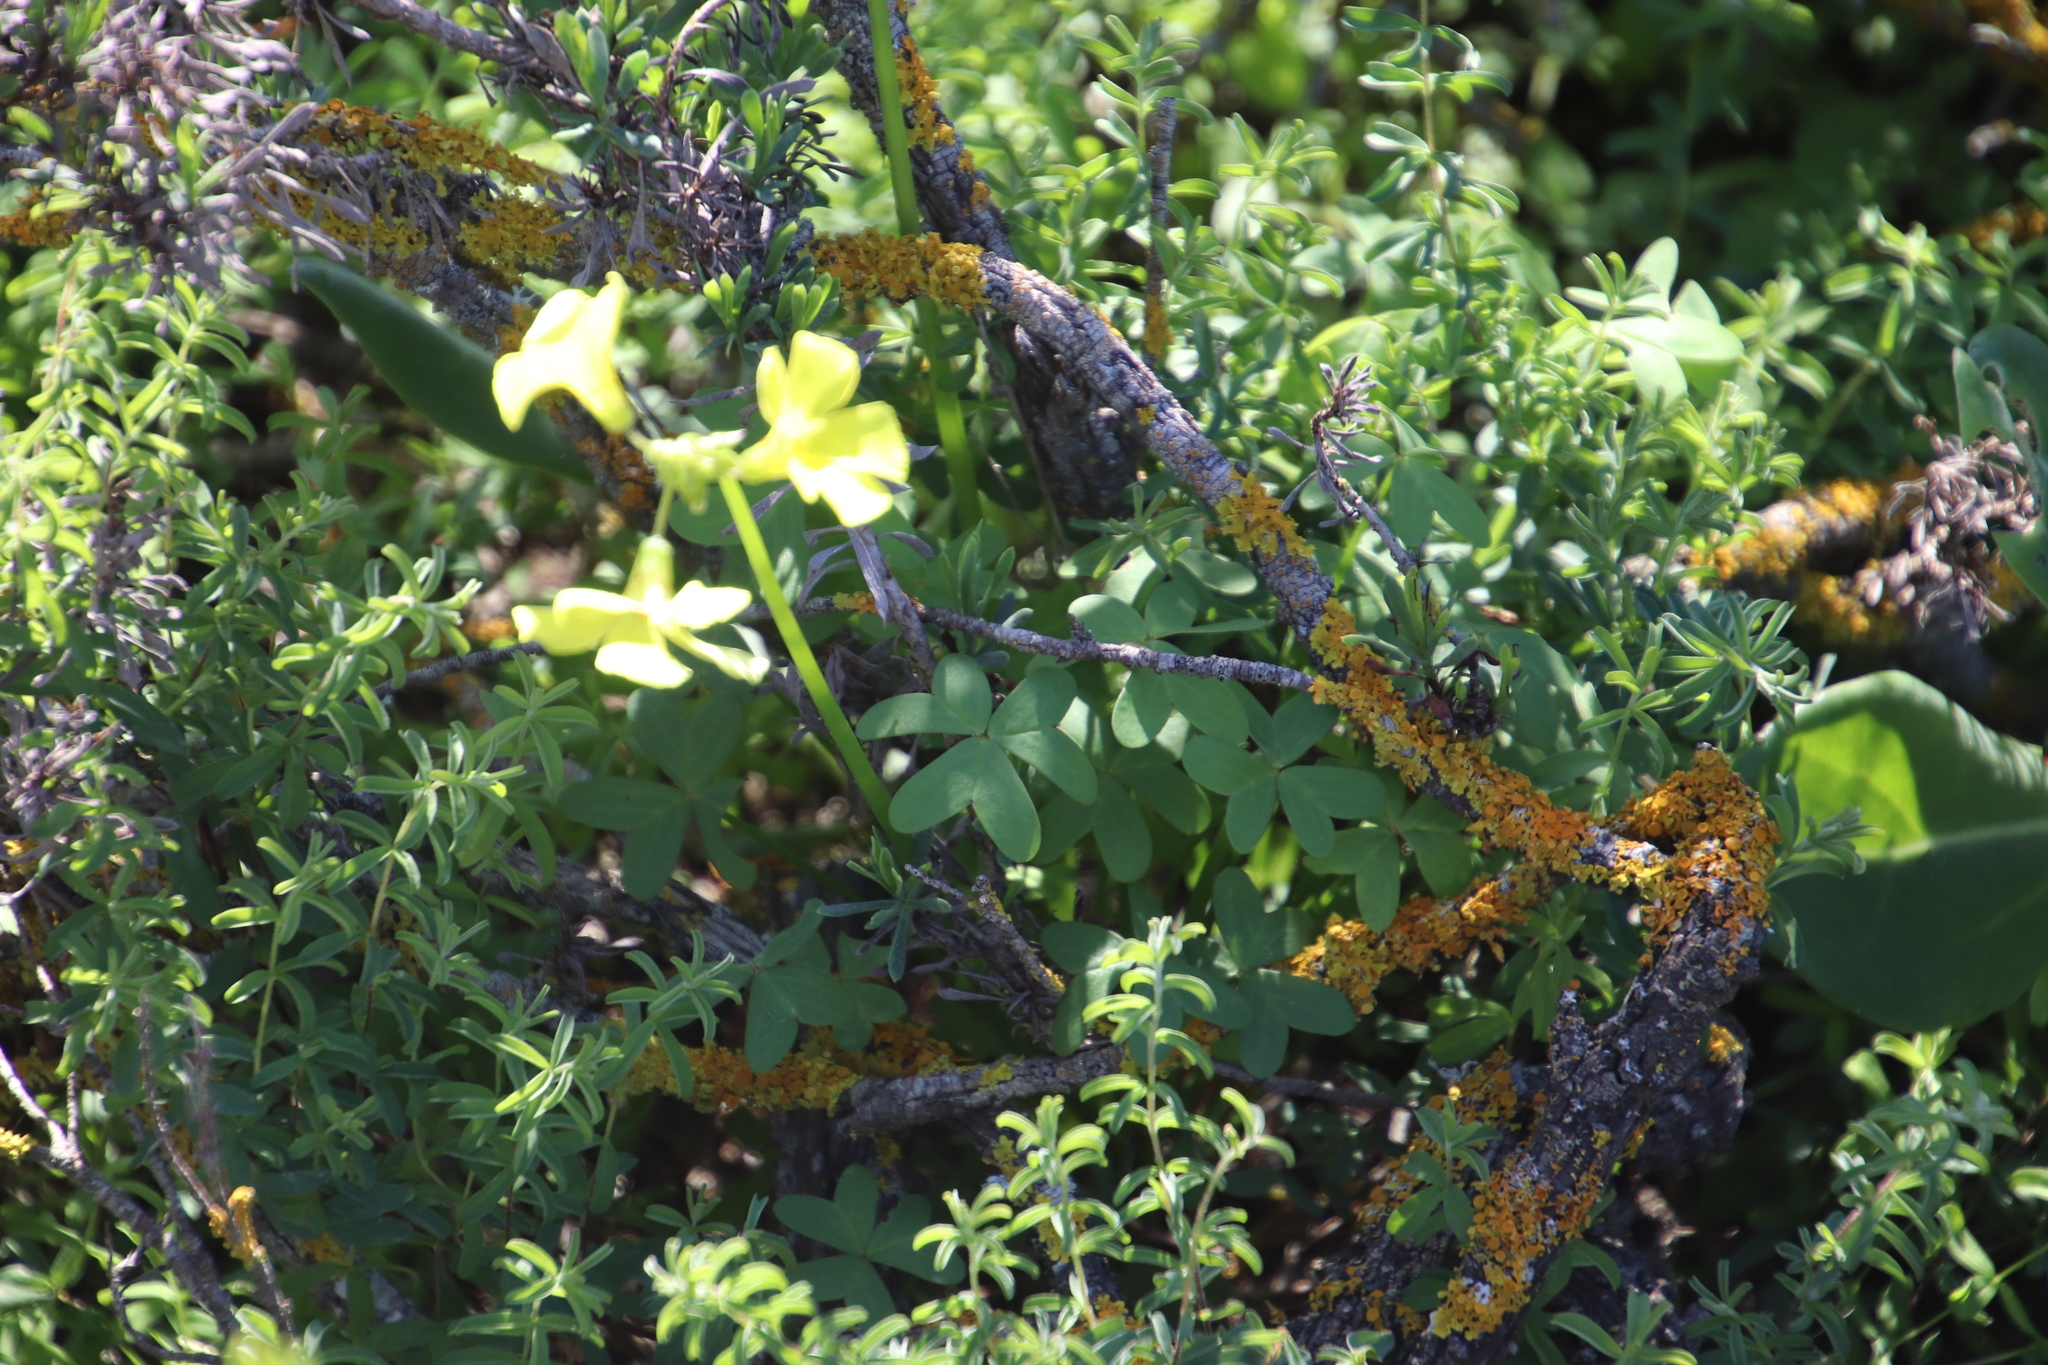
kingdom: Plantae
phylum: Tracheophyta
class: Magnoliopsida
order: Oxalidales
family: Oxalidaceae
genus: Oxalis
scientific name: Oxalis pes-caprae
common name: Bermuda-buttercup
